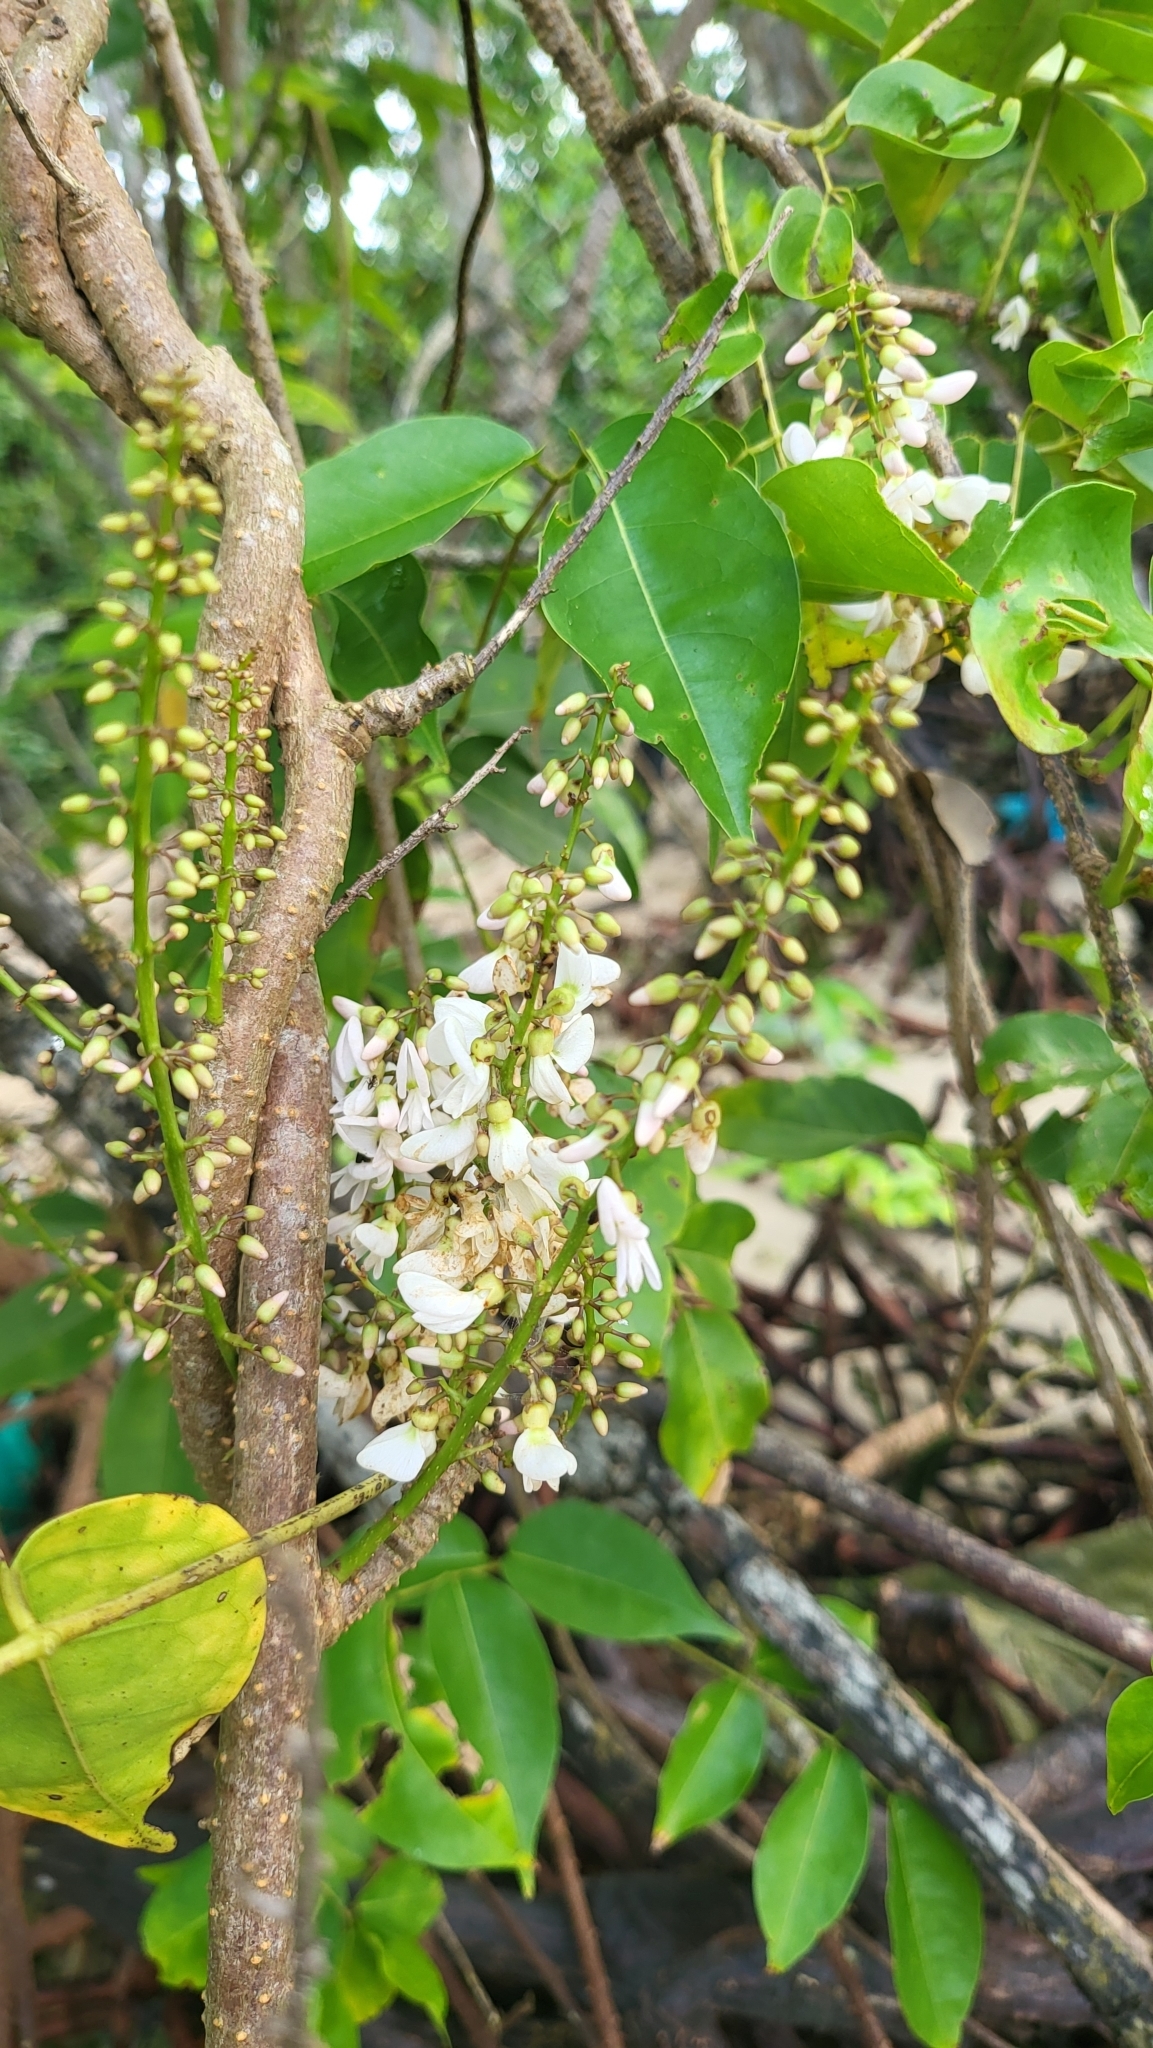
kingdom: Plantae
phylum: Tracheophyta
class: Magnoliopsida
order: Fabales
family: Fabaceae
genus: Derris
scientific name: Derris trifoliata
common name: Three-leaf derris
